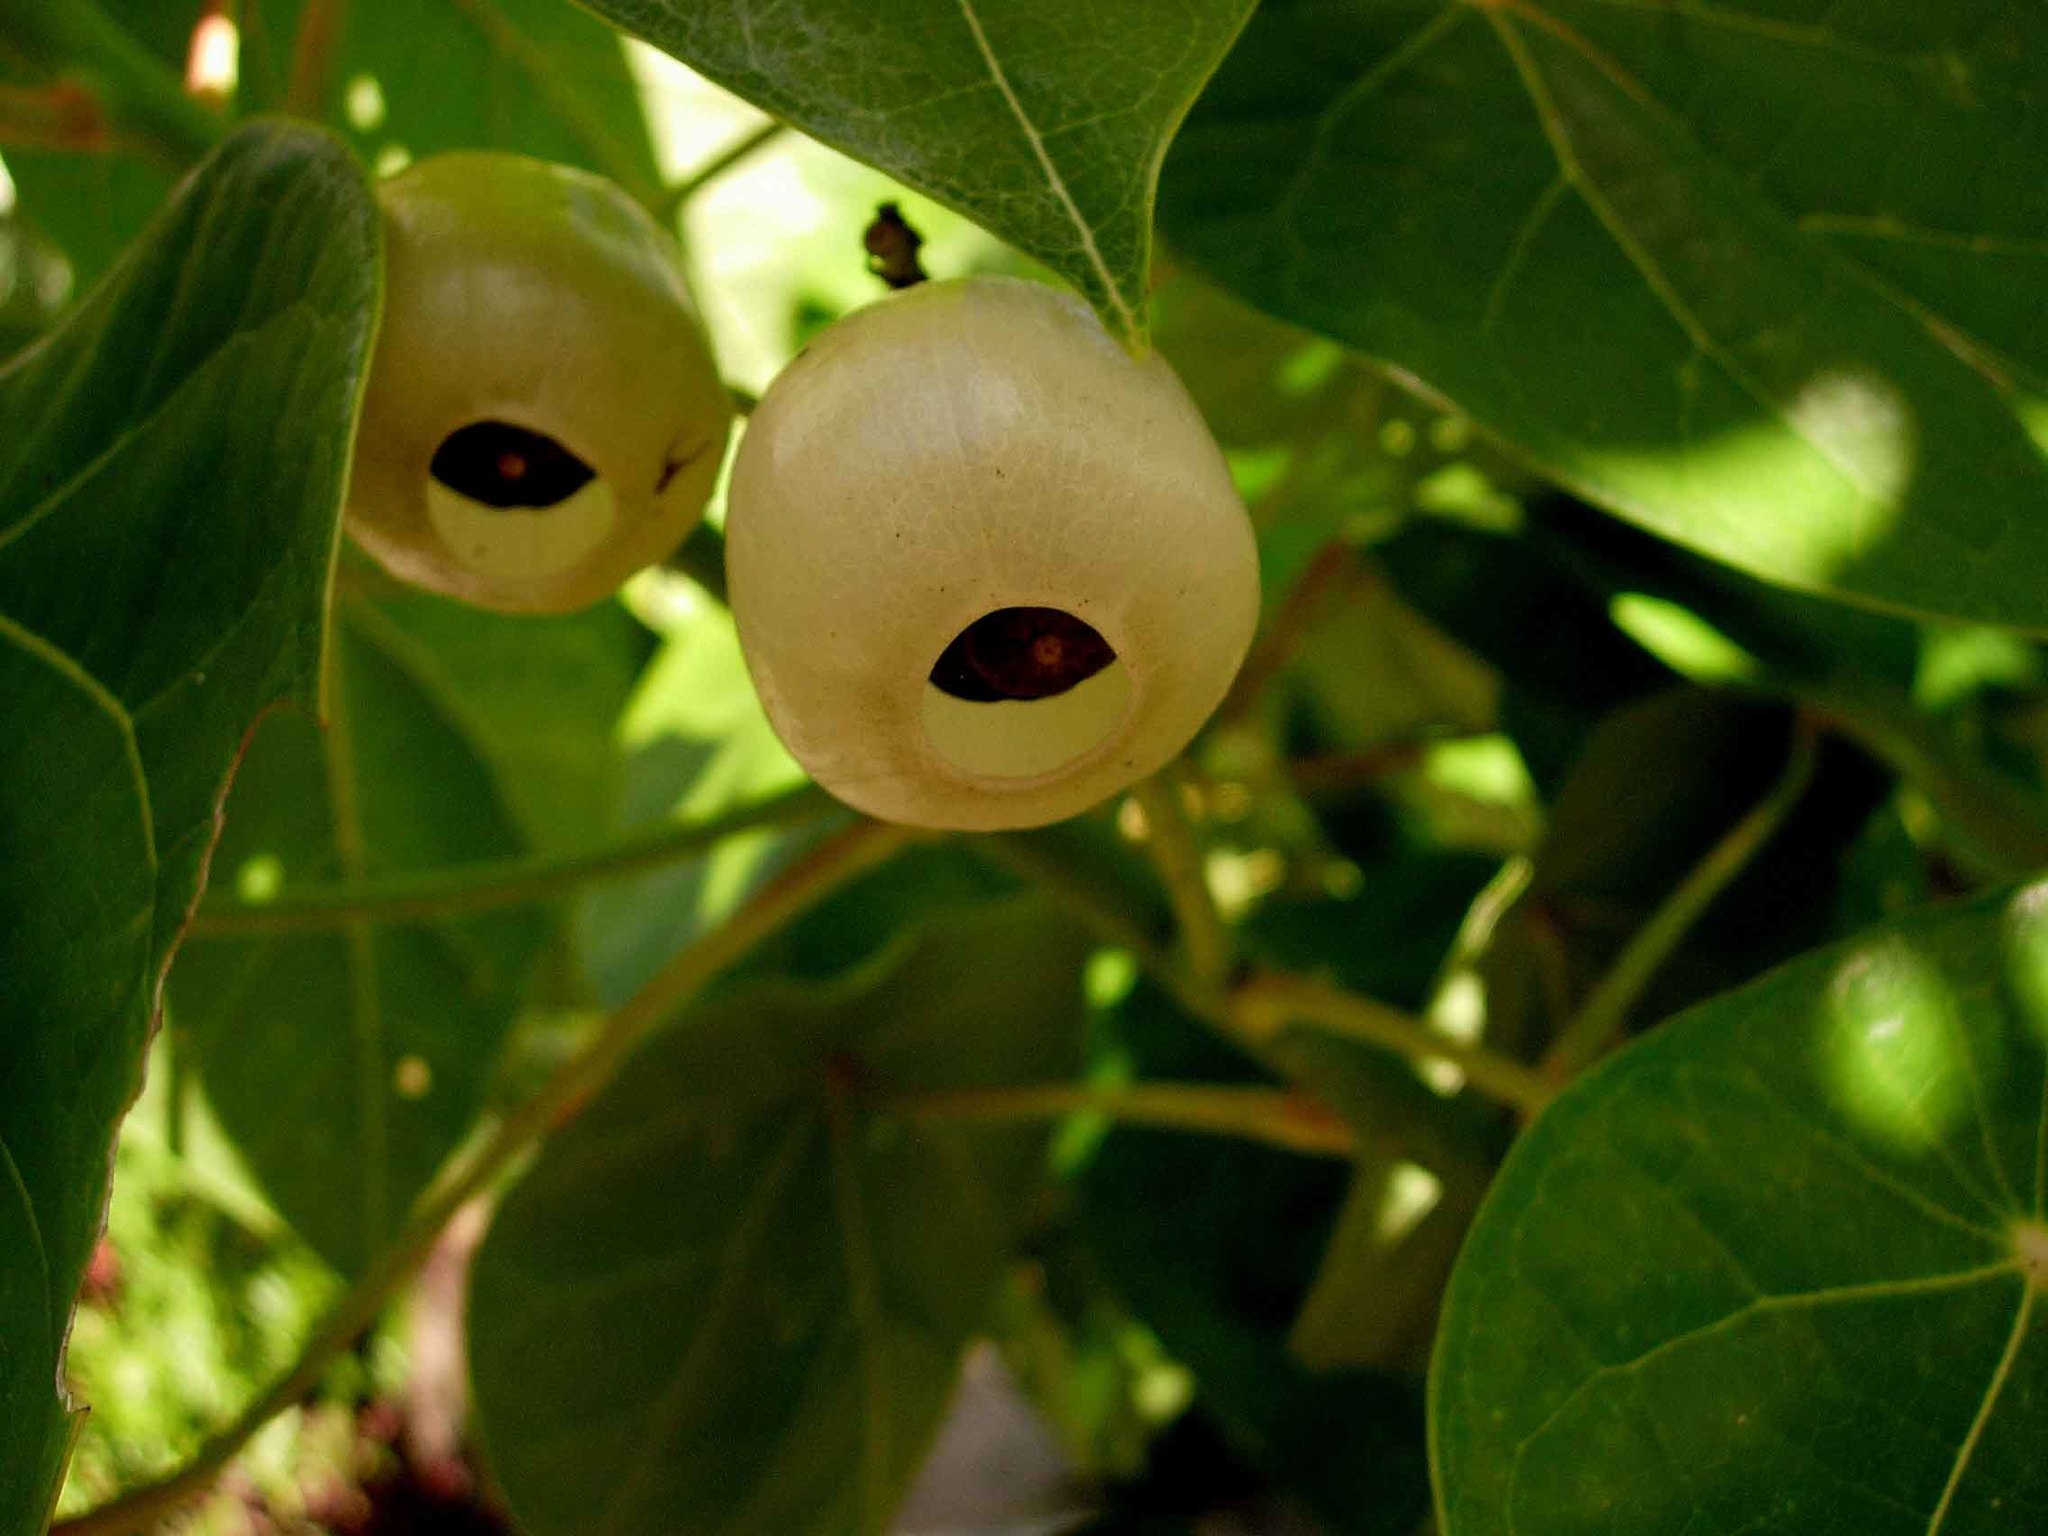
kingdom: Plantae
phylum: Tracheophyta
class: Magnoliopsida
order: Laurales
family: Hernandiaceae
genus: Hernandia
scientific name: Hernandia nymphaeifolia
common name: Sea hearse
